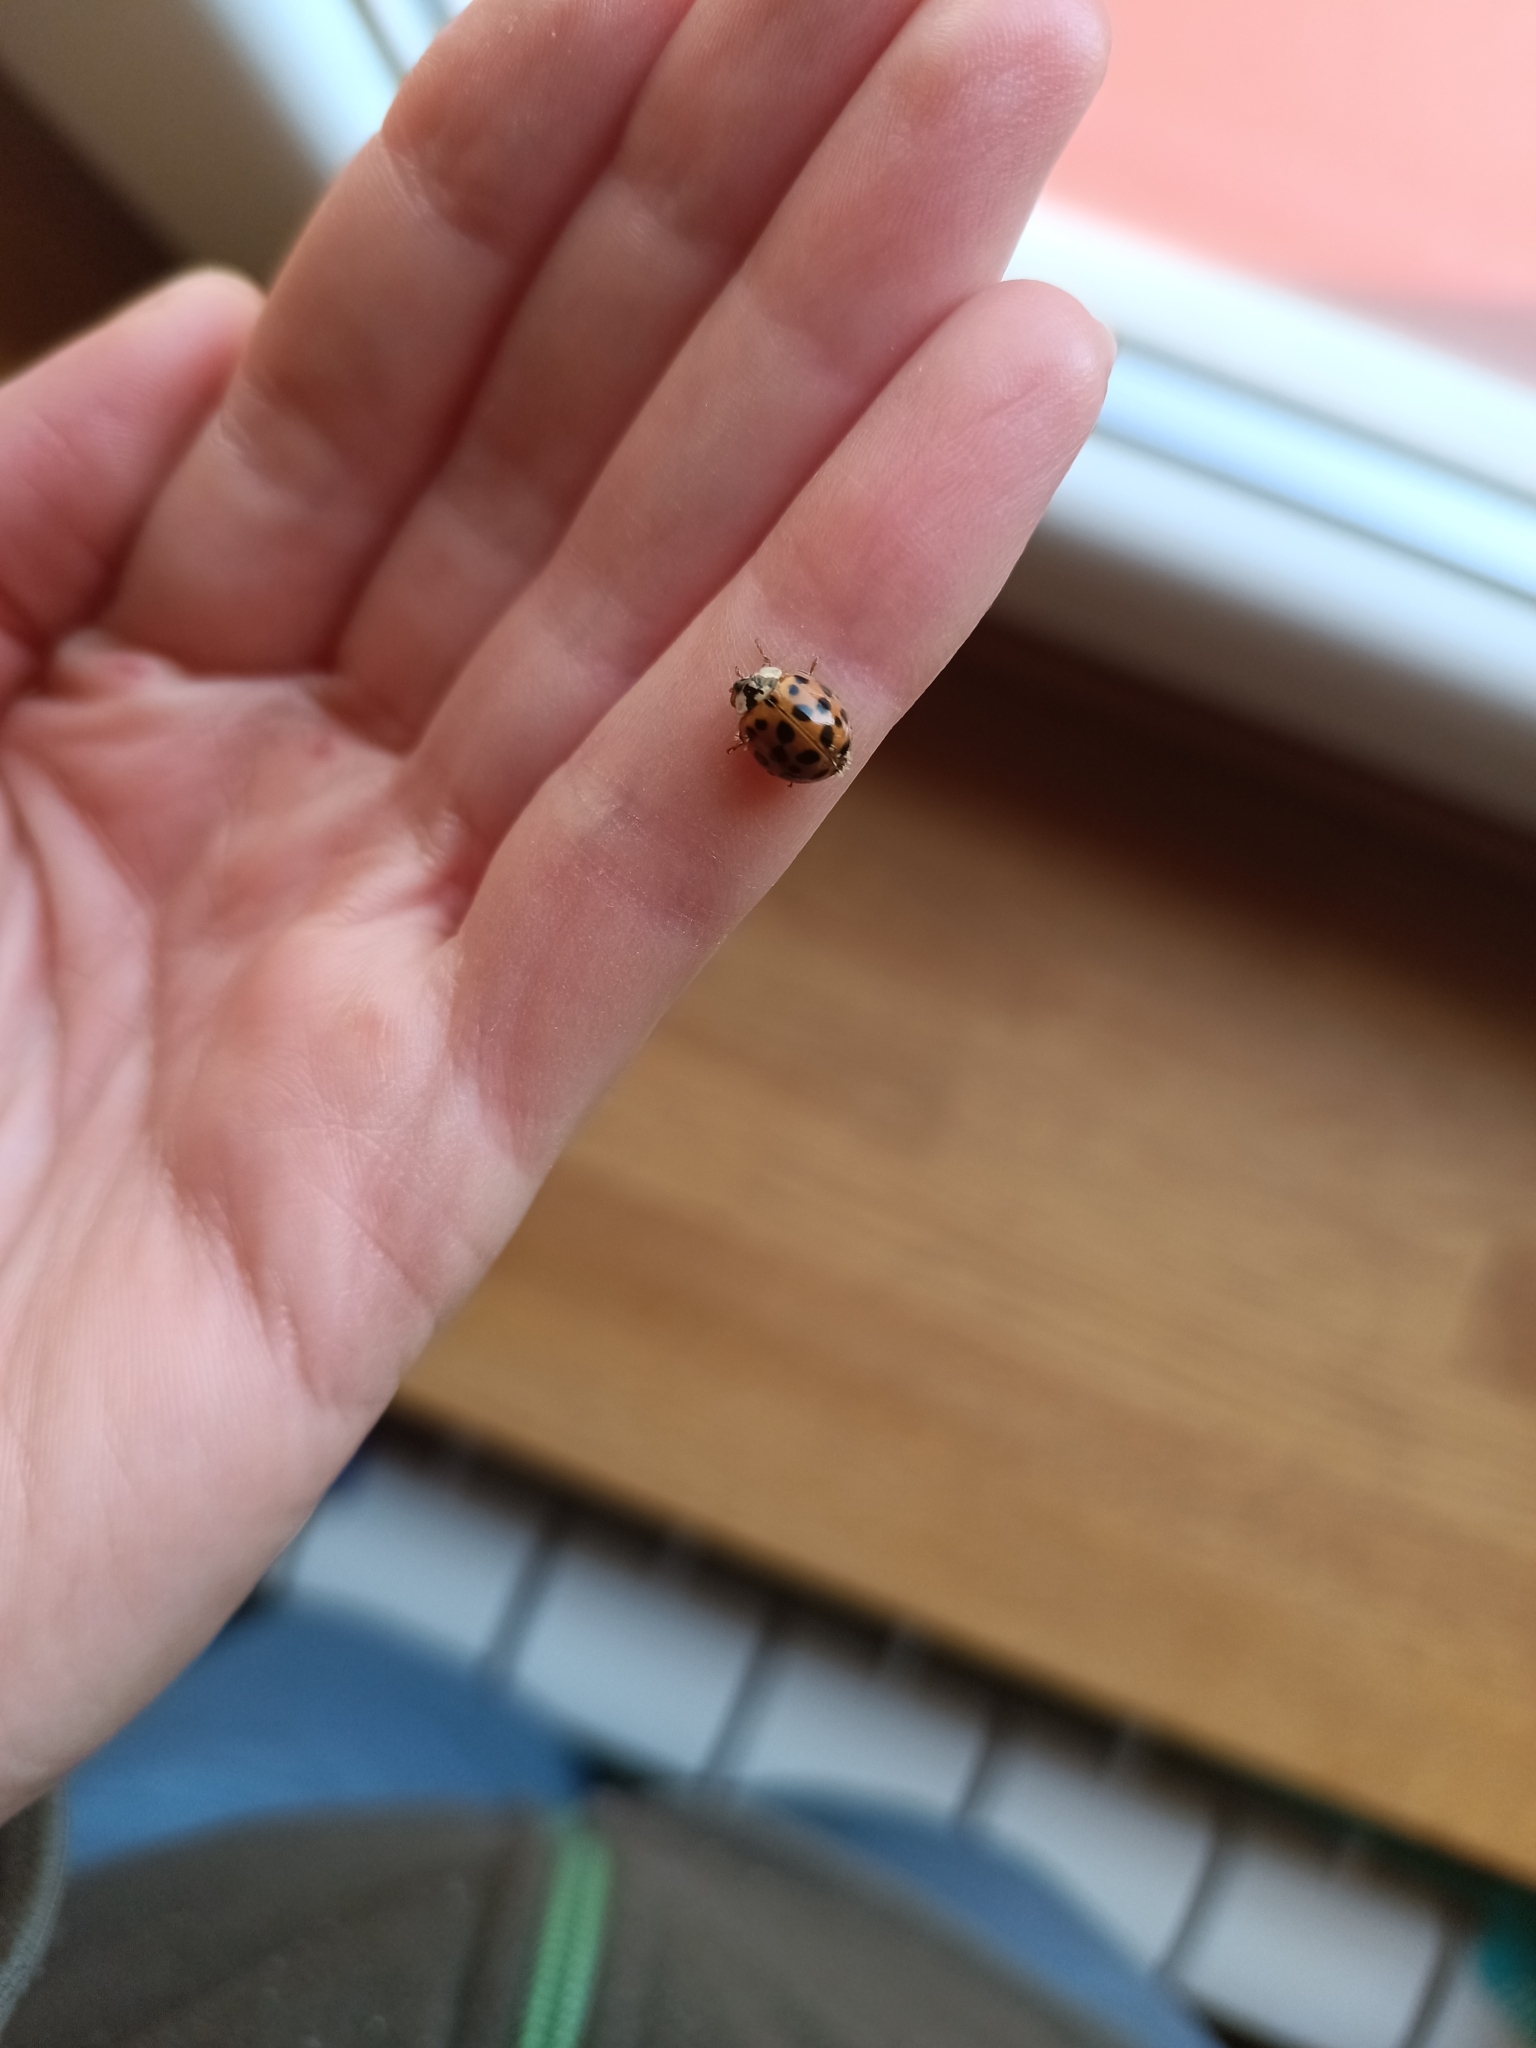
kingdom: Animalia
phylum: Arthropoda
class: Insecta
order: Coleoptera
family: Coccinellidae
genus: Harmonia
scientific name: Harmonia axyridis
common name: Harlequin ladybird
